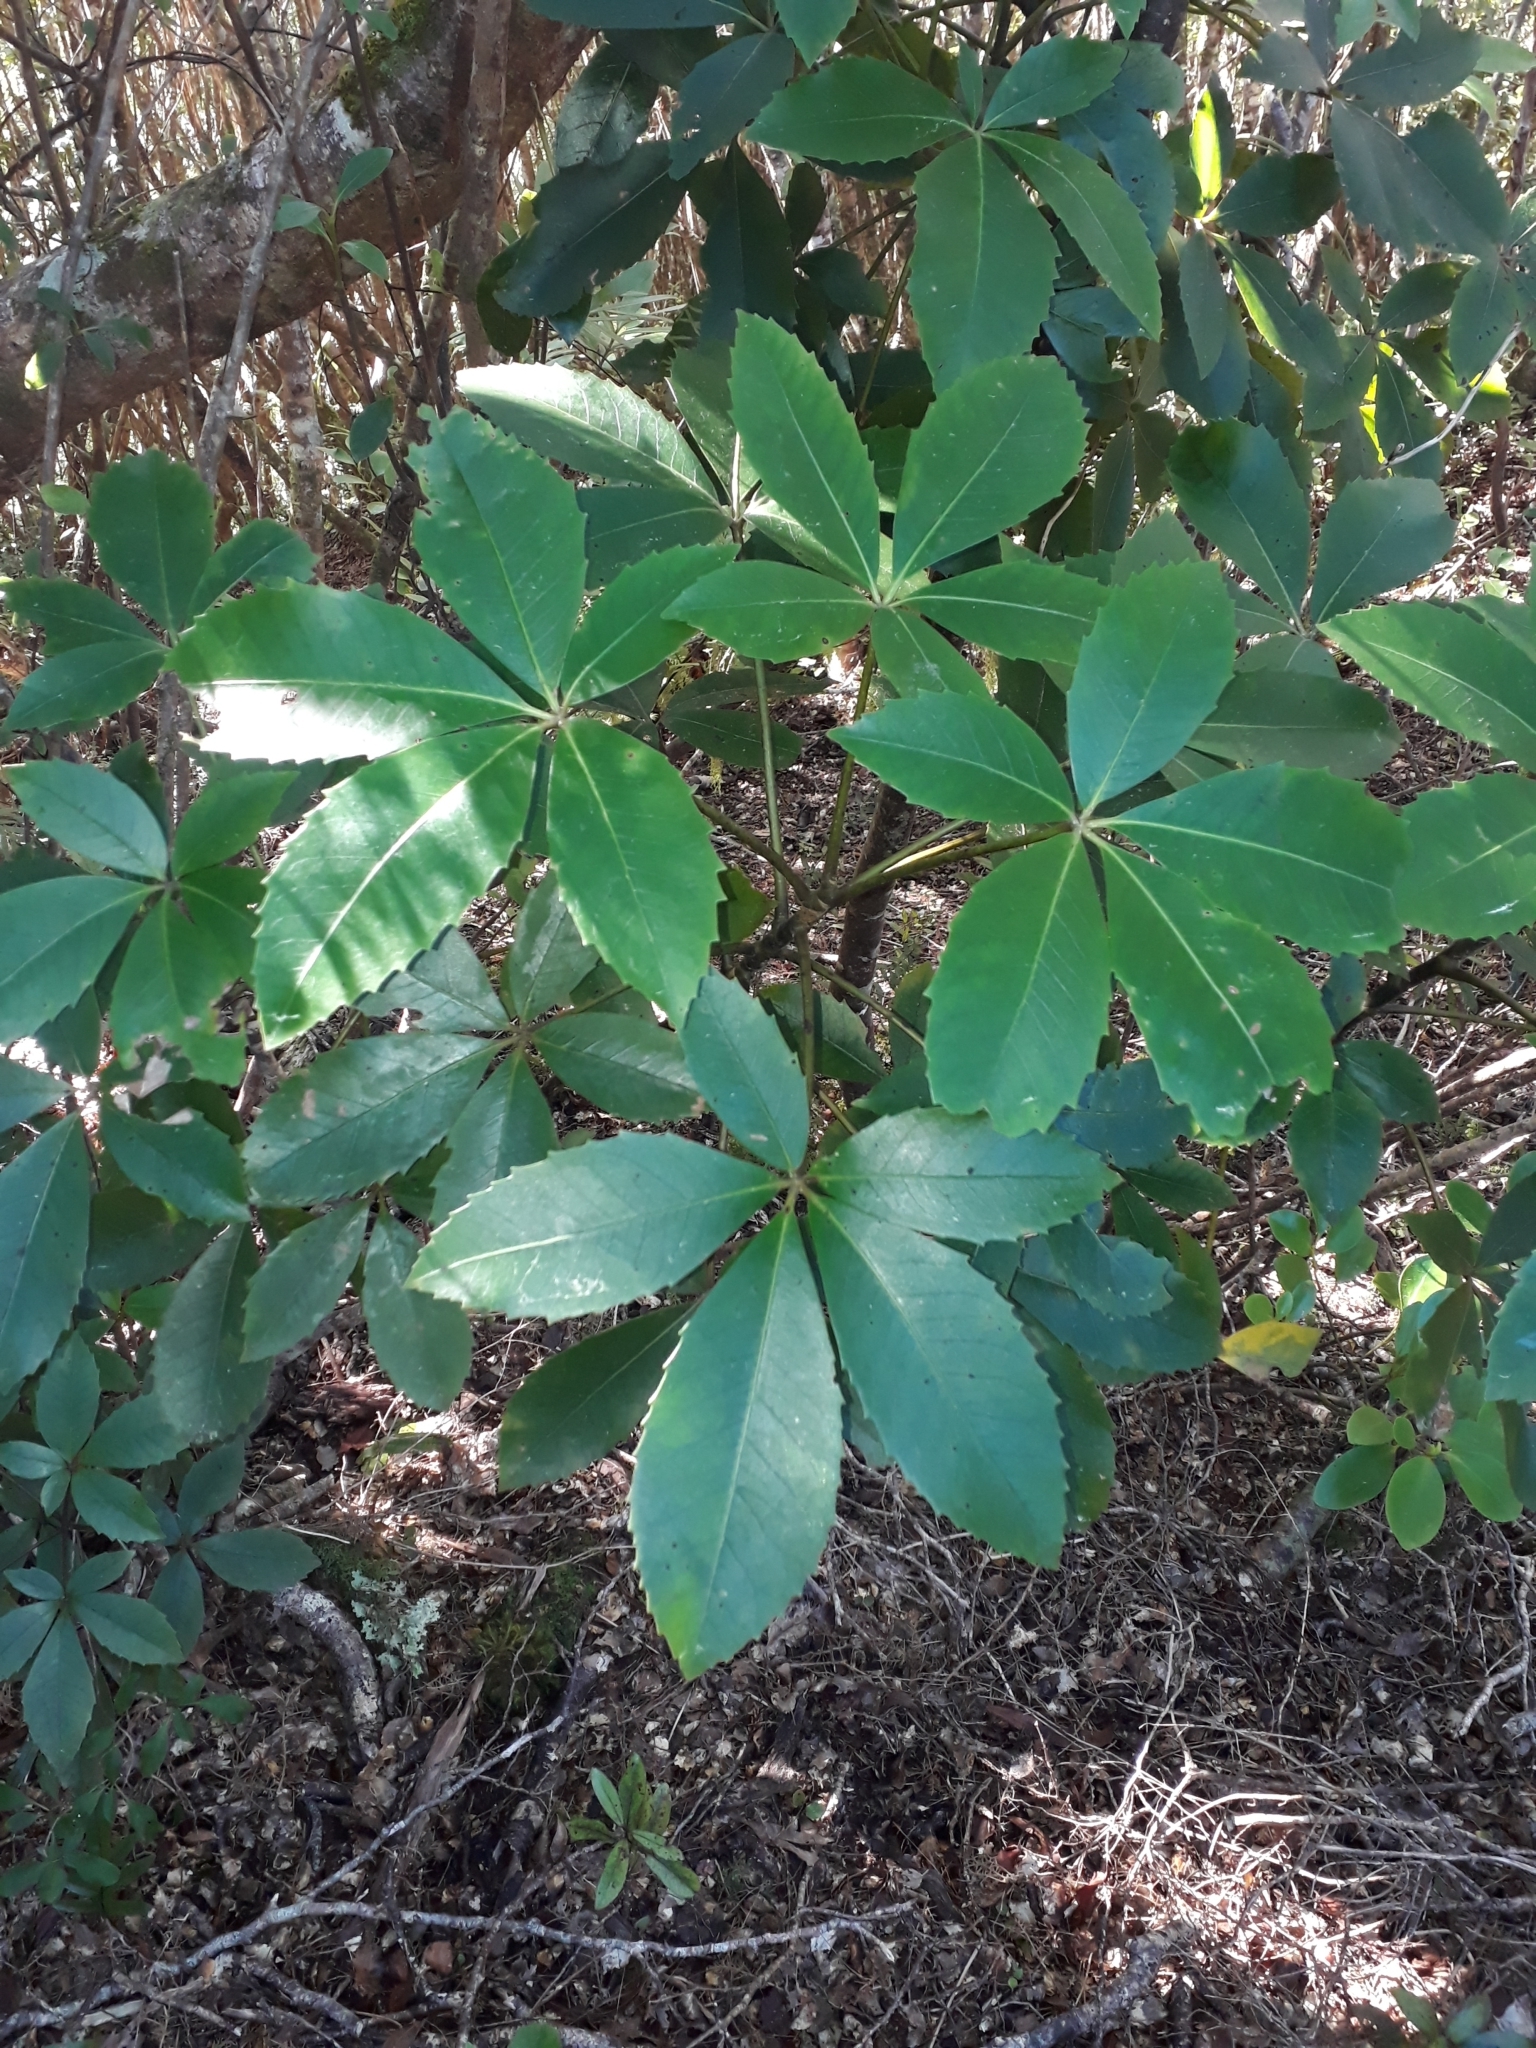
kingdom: Plantae
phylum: Tracheophyta
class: Magnoliopsida
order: Apiales
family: Araliaceae
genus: Neopanax
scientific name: Neopanax colensoi
